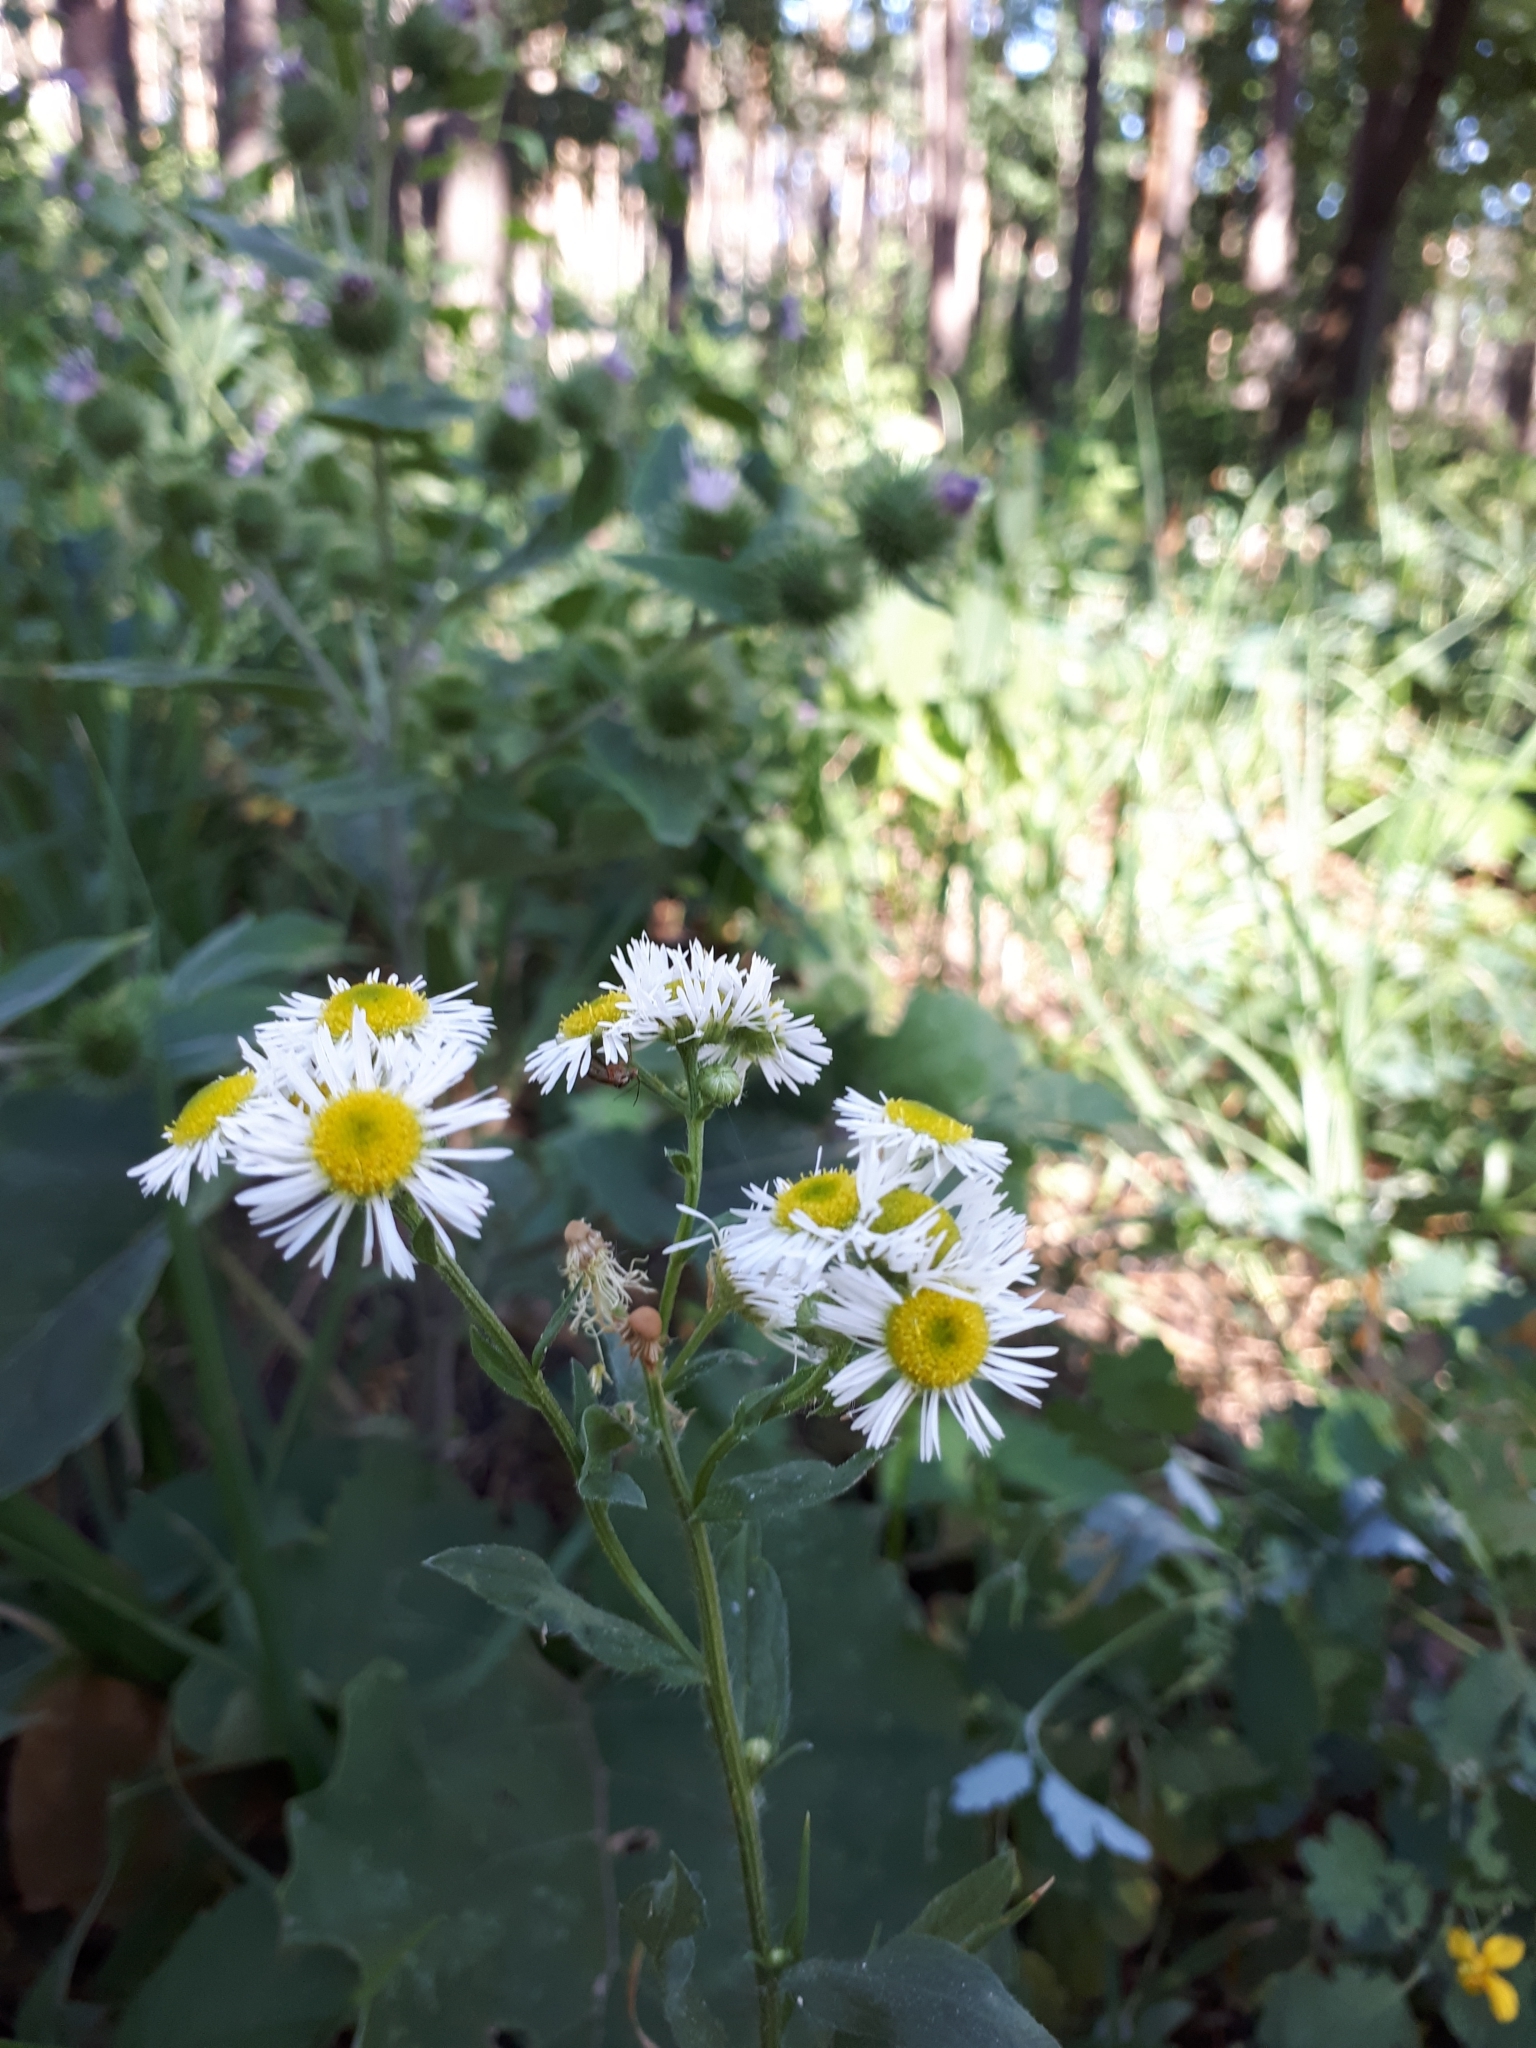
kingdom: Plantae
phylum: Tracheophyta
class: Magnoliopsida
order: Asterales
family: Asteraceae
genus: Erigeron
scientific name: Erigeron annuus
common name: Tall fleabane
